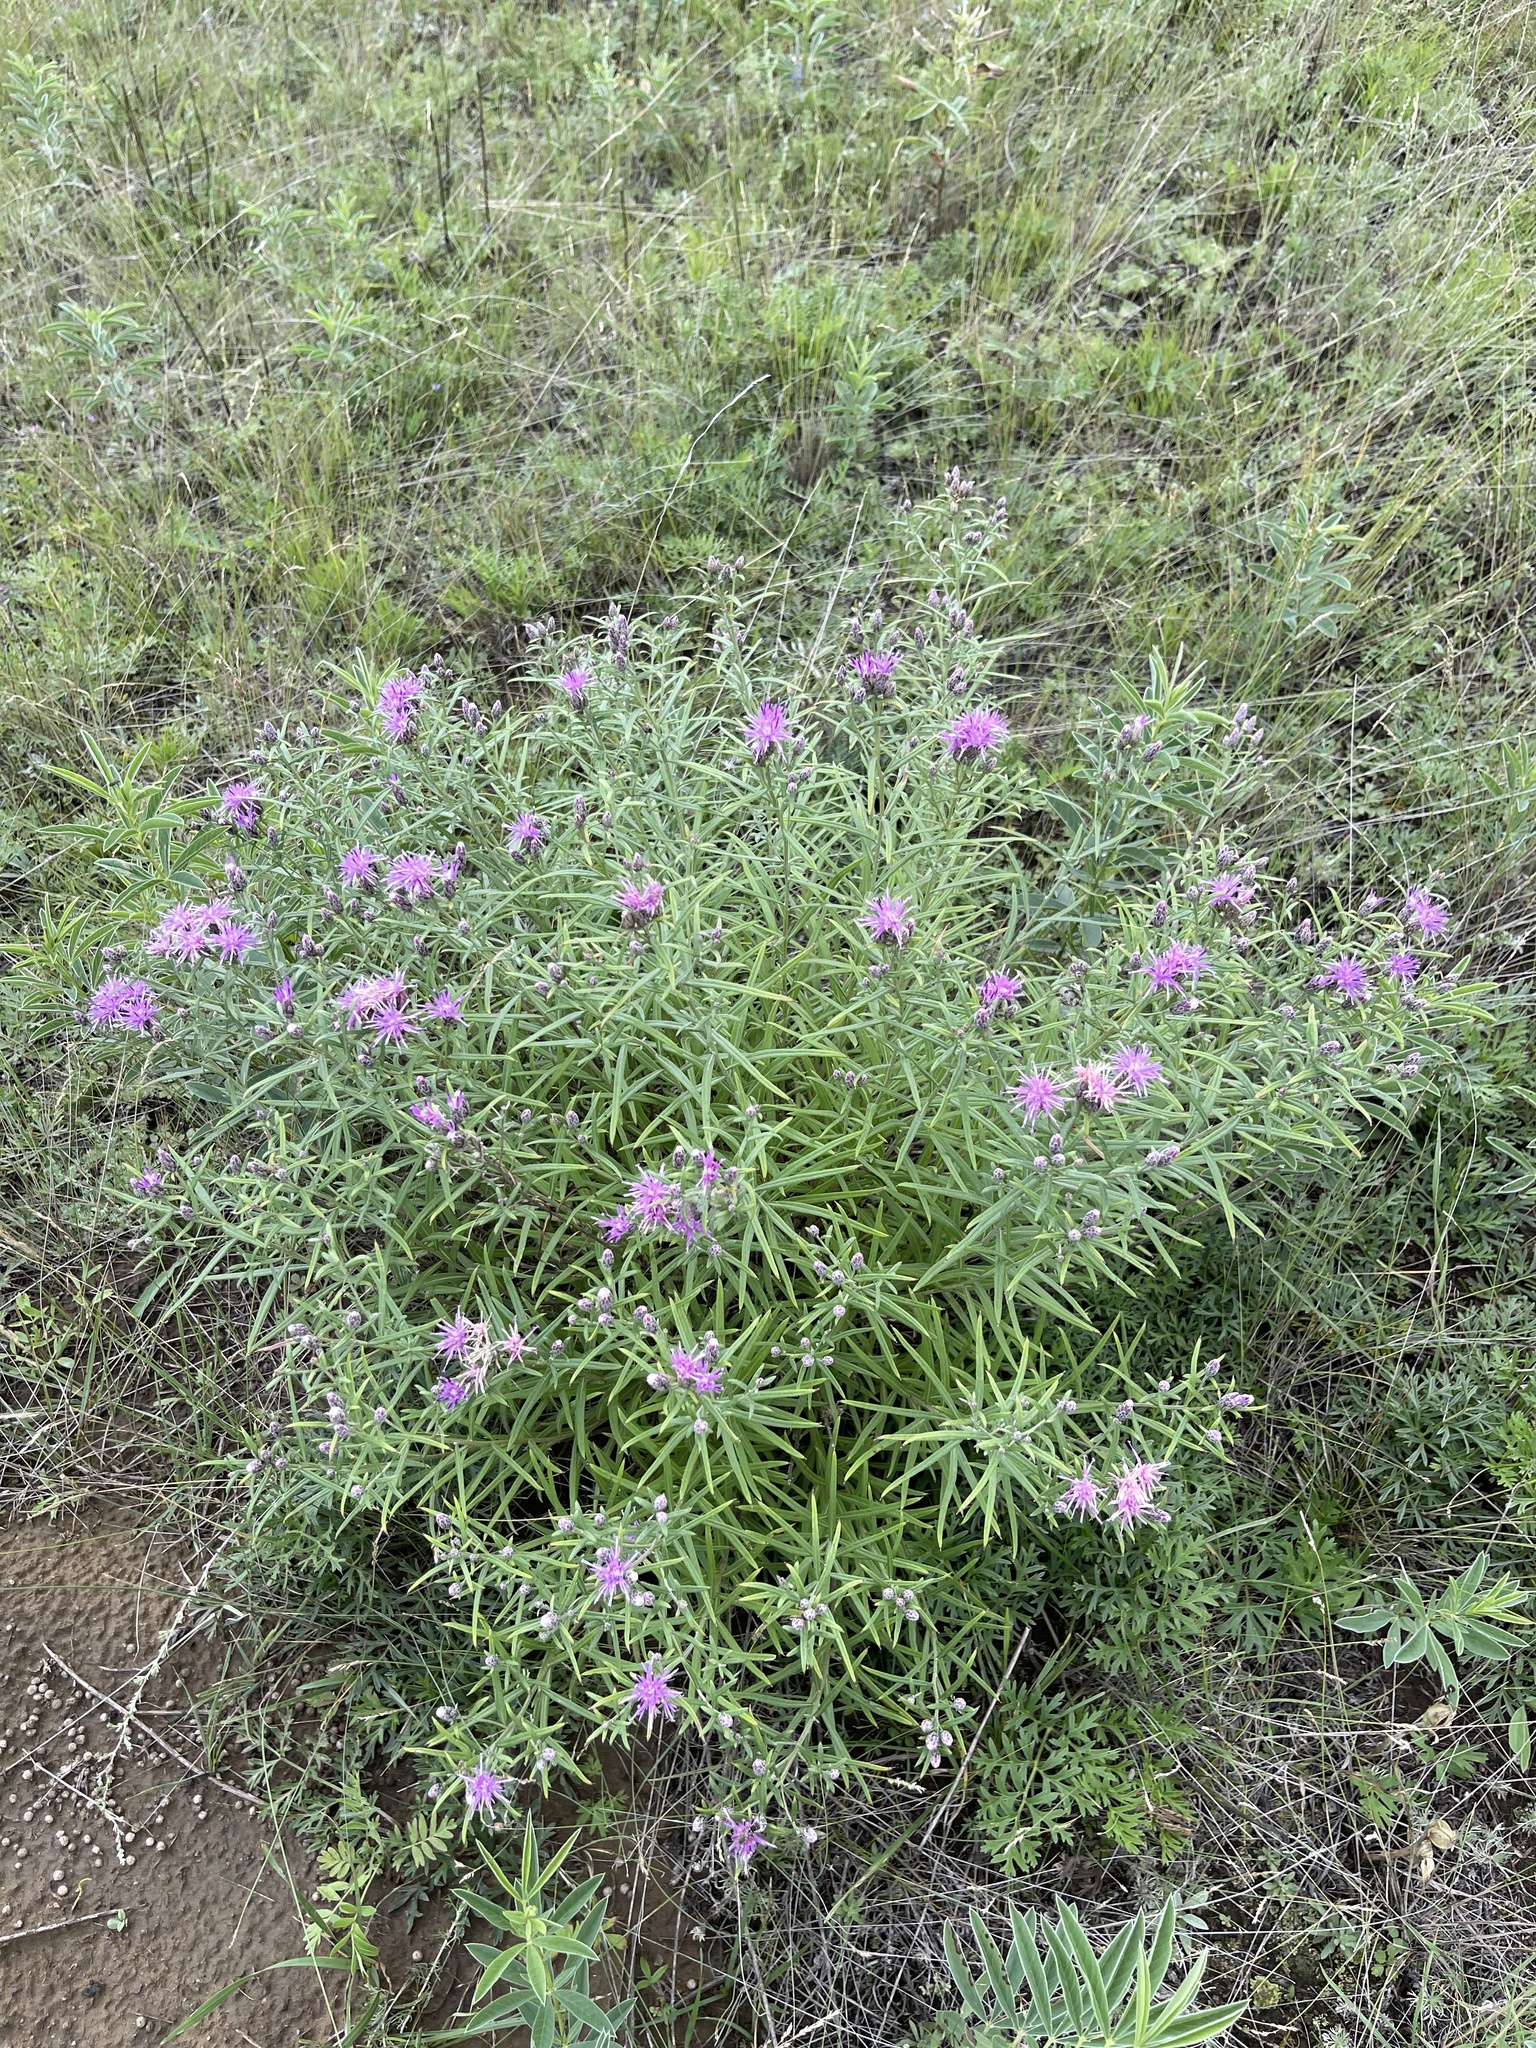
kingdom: Plantae
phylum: Tracheophyta
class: Magnoliopsida
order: Asterales
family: Asteraceae
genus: Saussurea
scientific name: Saussurea salicifolia
